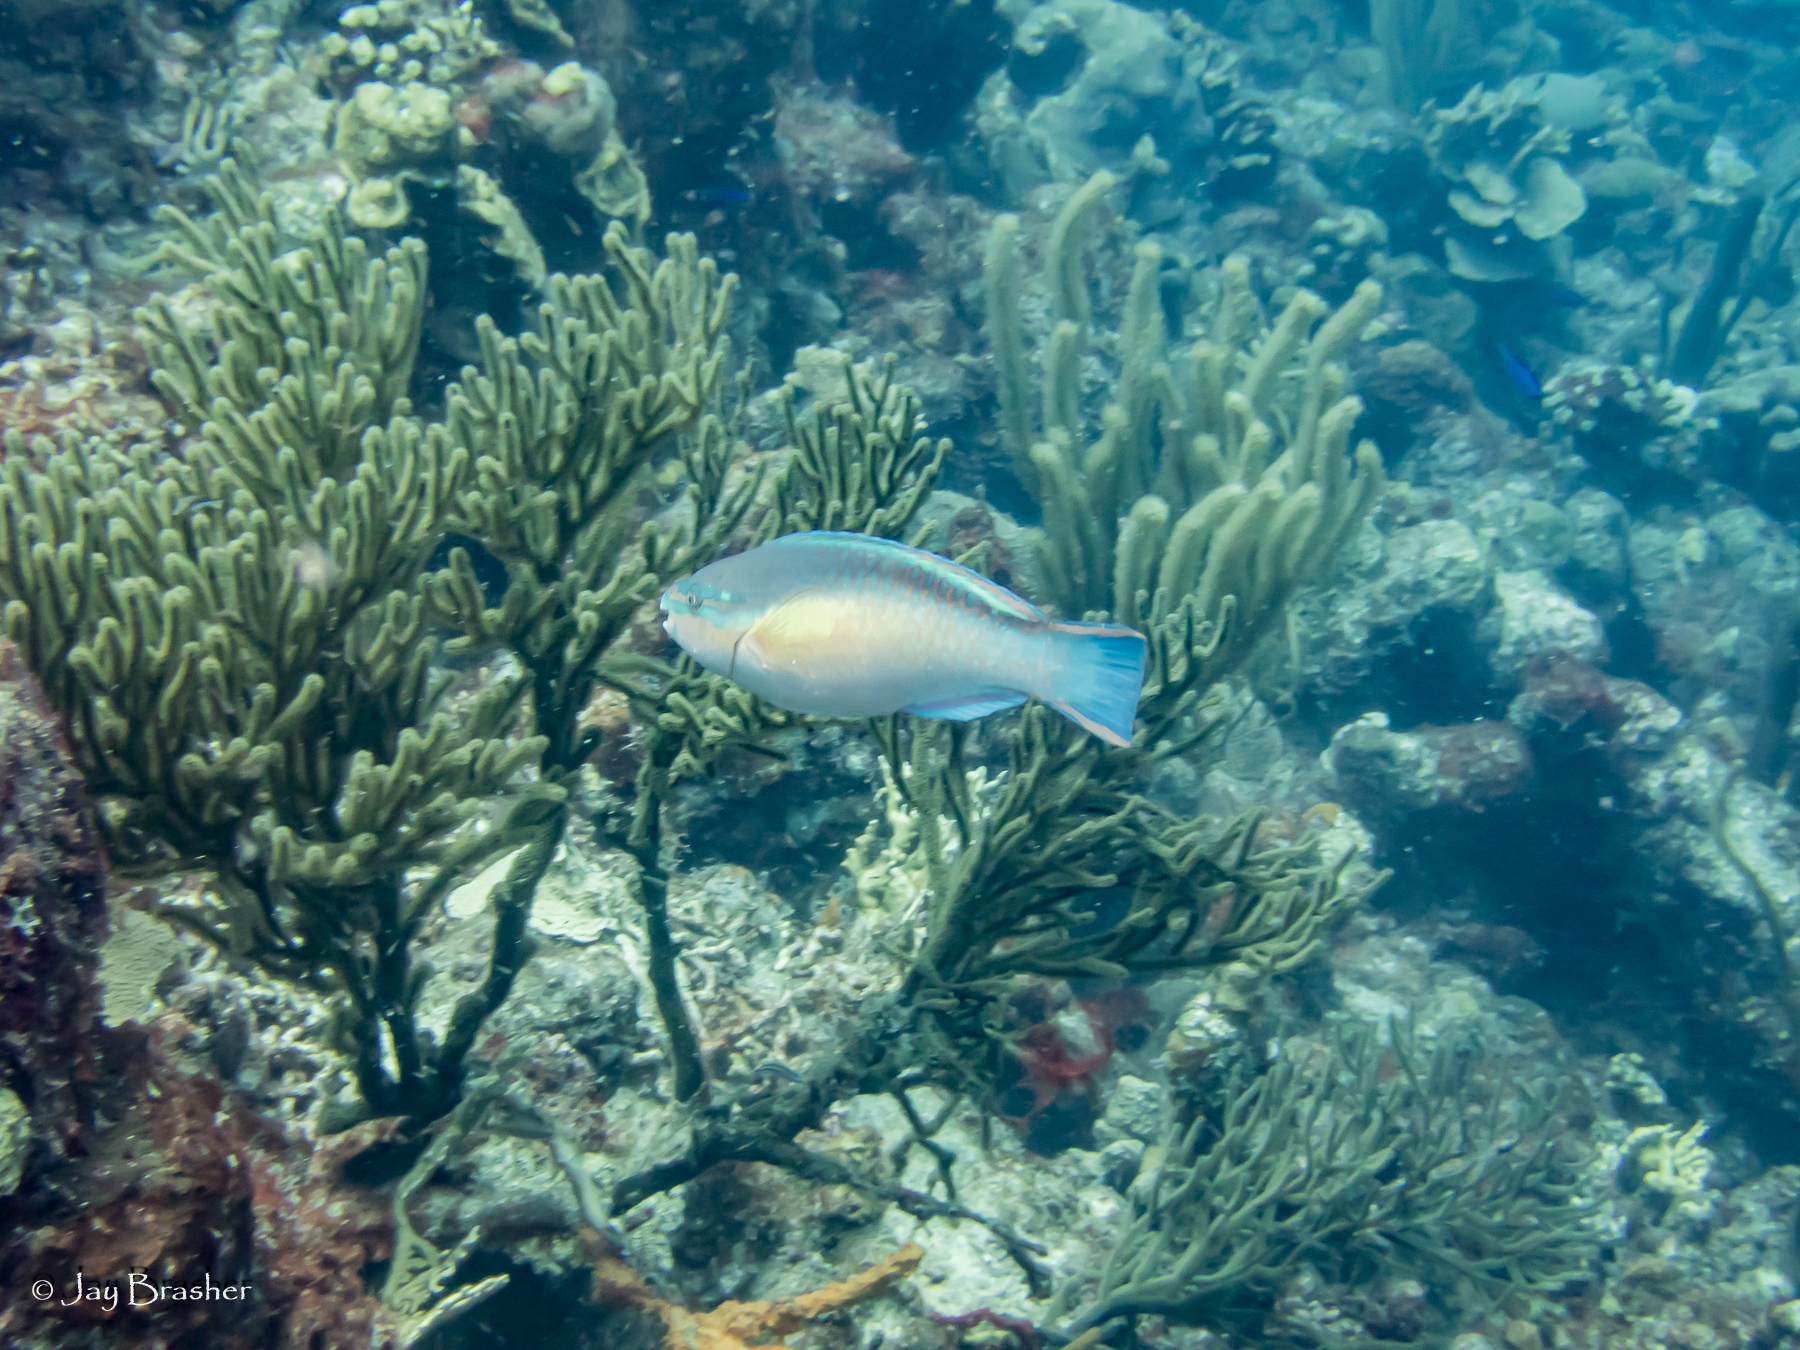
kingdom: Animalia
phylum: Chordata
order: Perciformes
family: Scaridae
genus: Scarus
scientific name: Scarus taeniopterus
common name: Princess parrotfish
